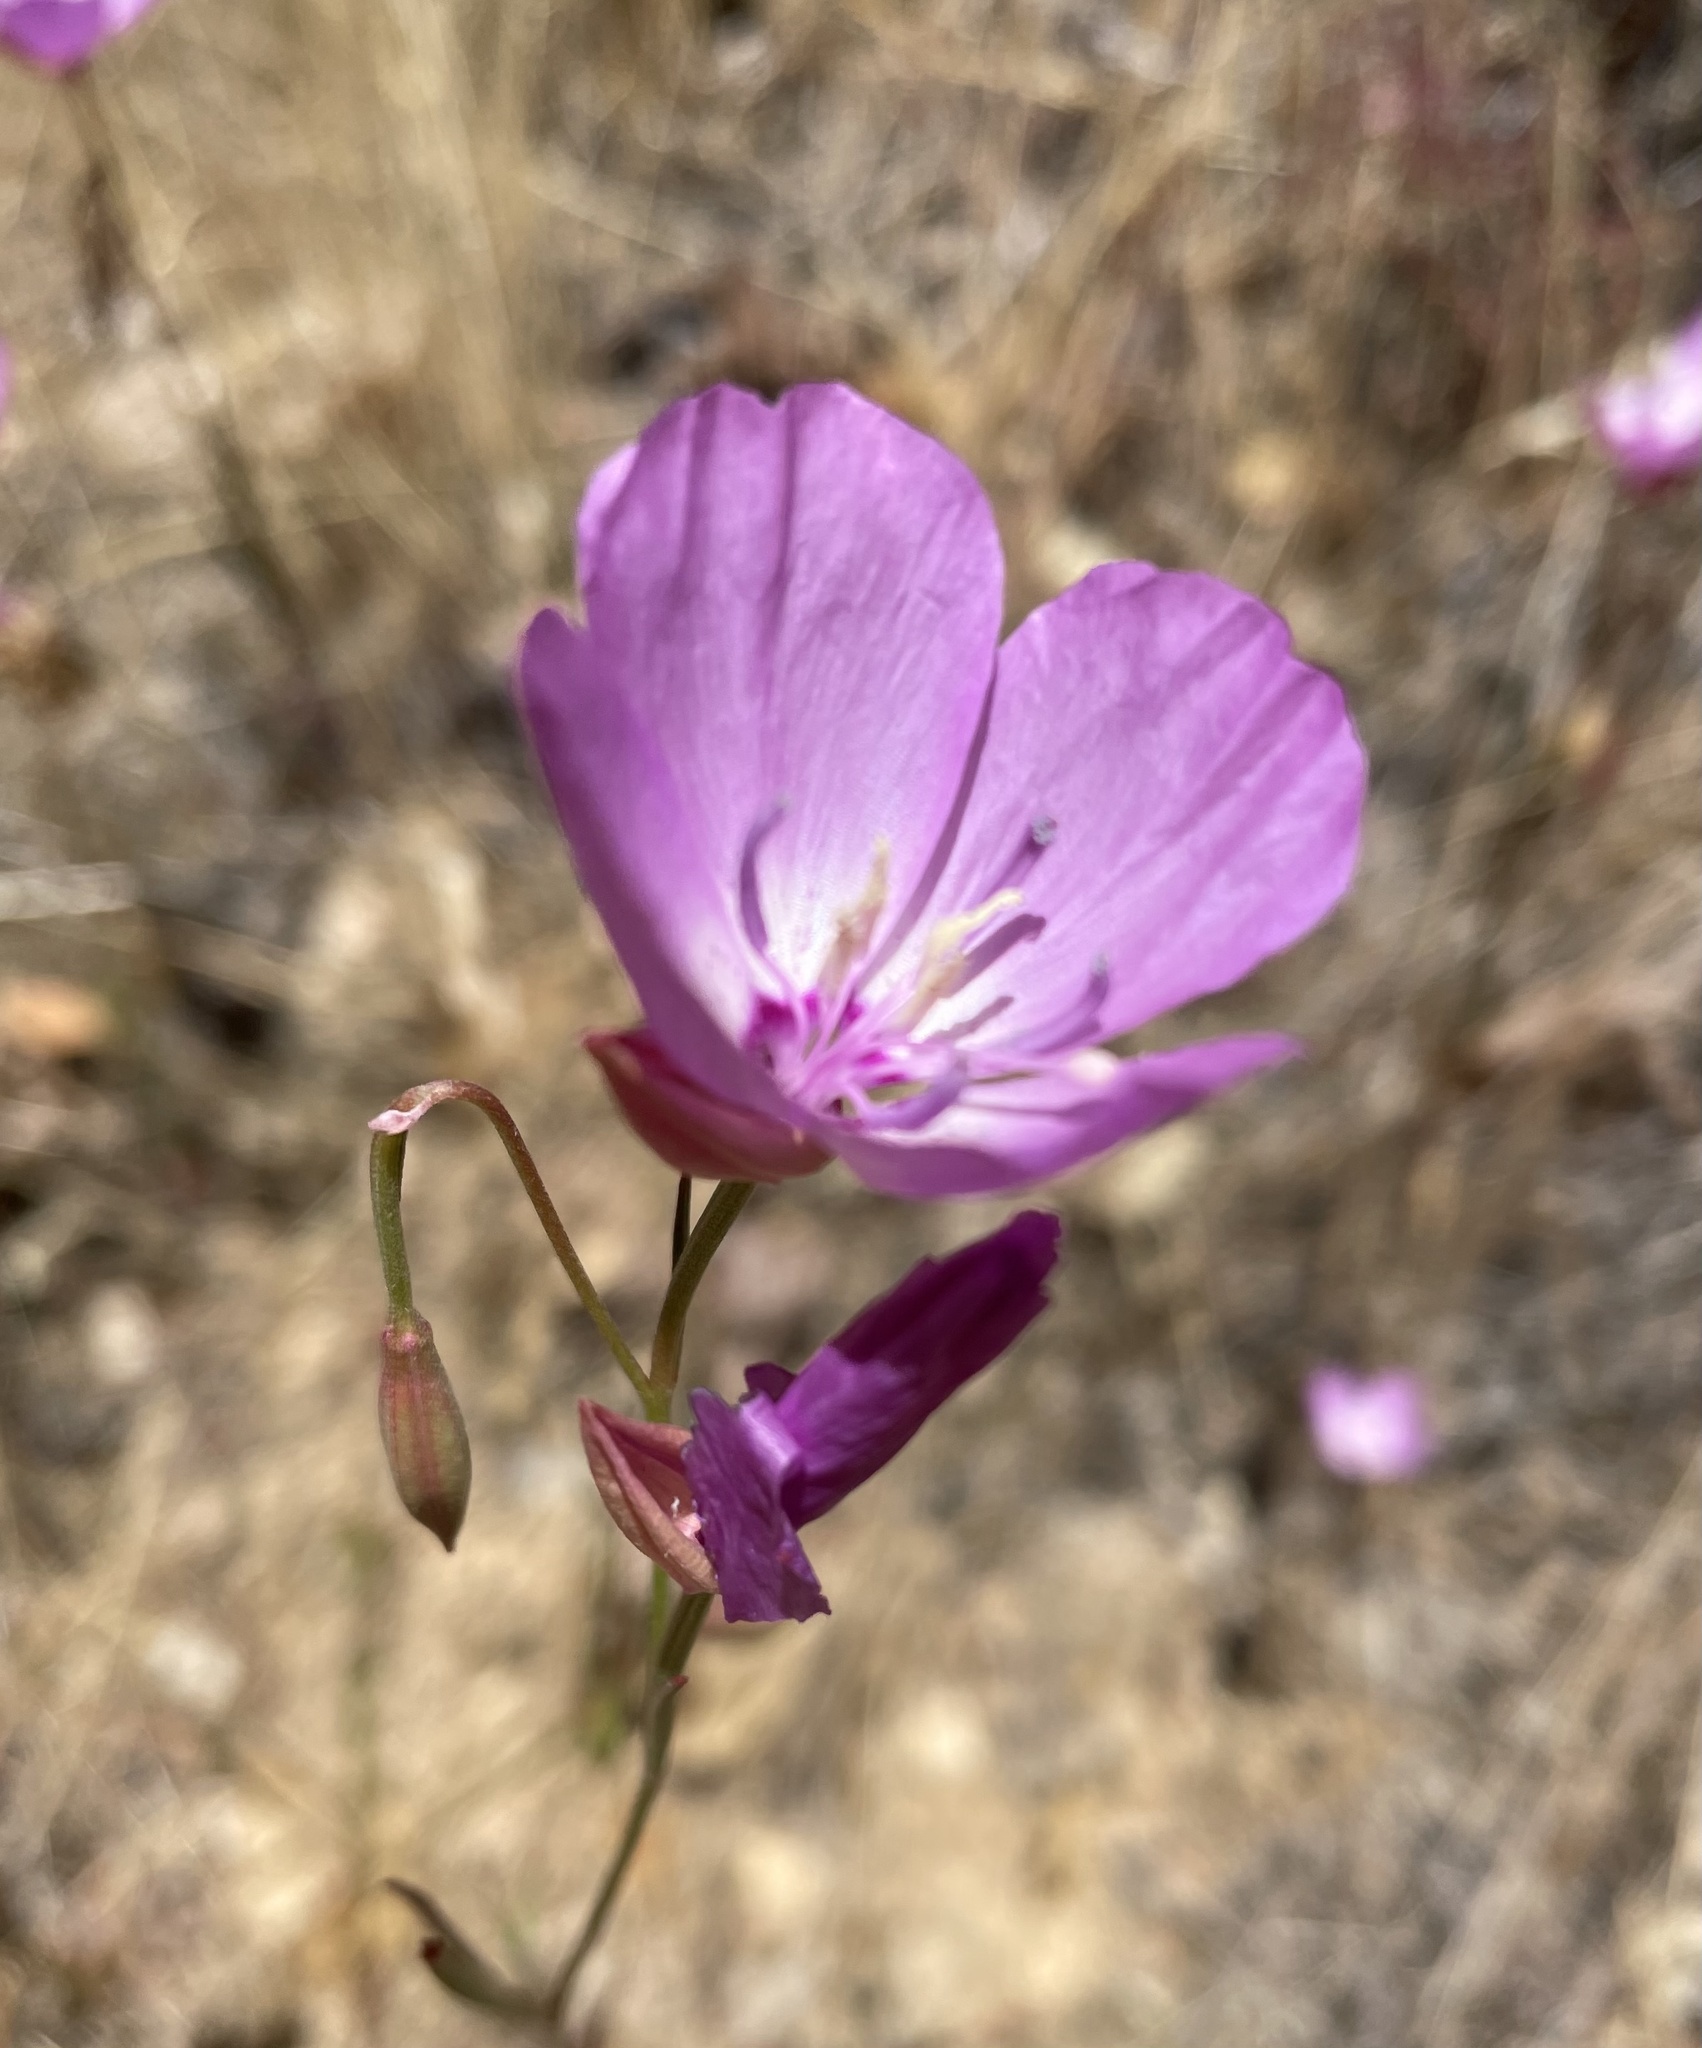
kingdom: Plantae
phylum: Tracheophyta
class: Magnoliopsida
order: Myrtales
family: Onagraceae
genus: Clarkia
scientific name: Clarkia lewisii
